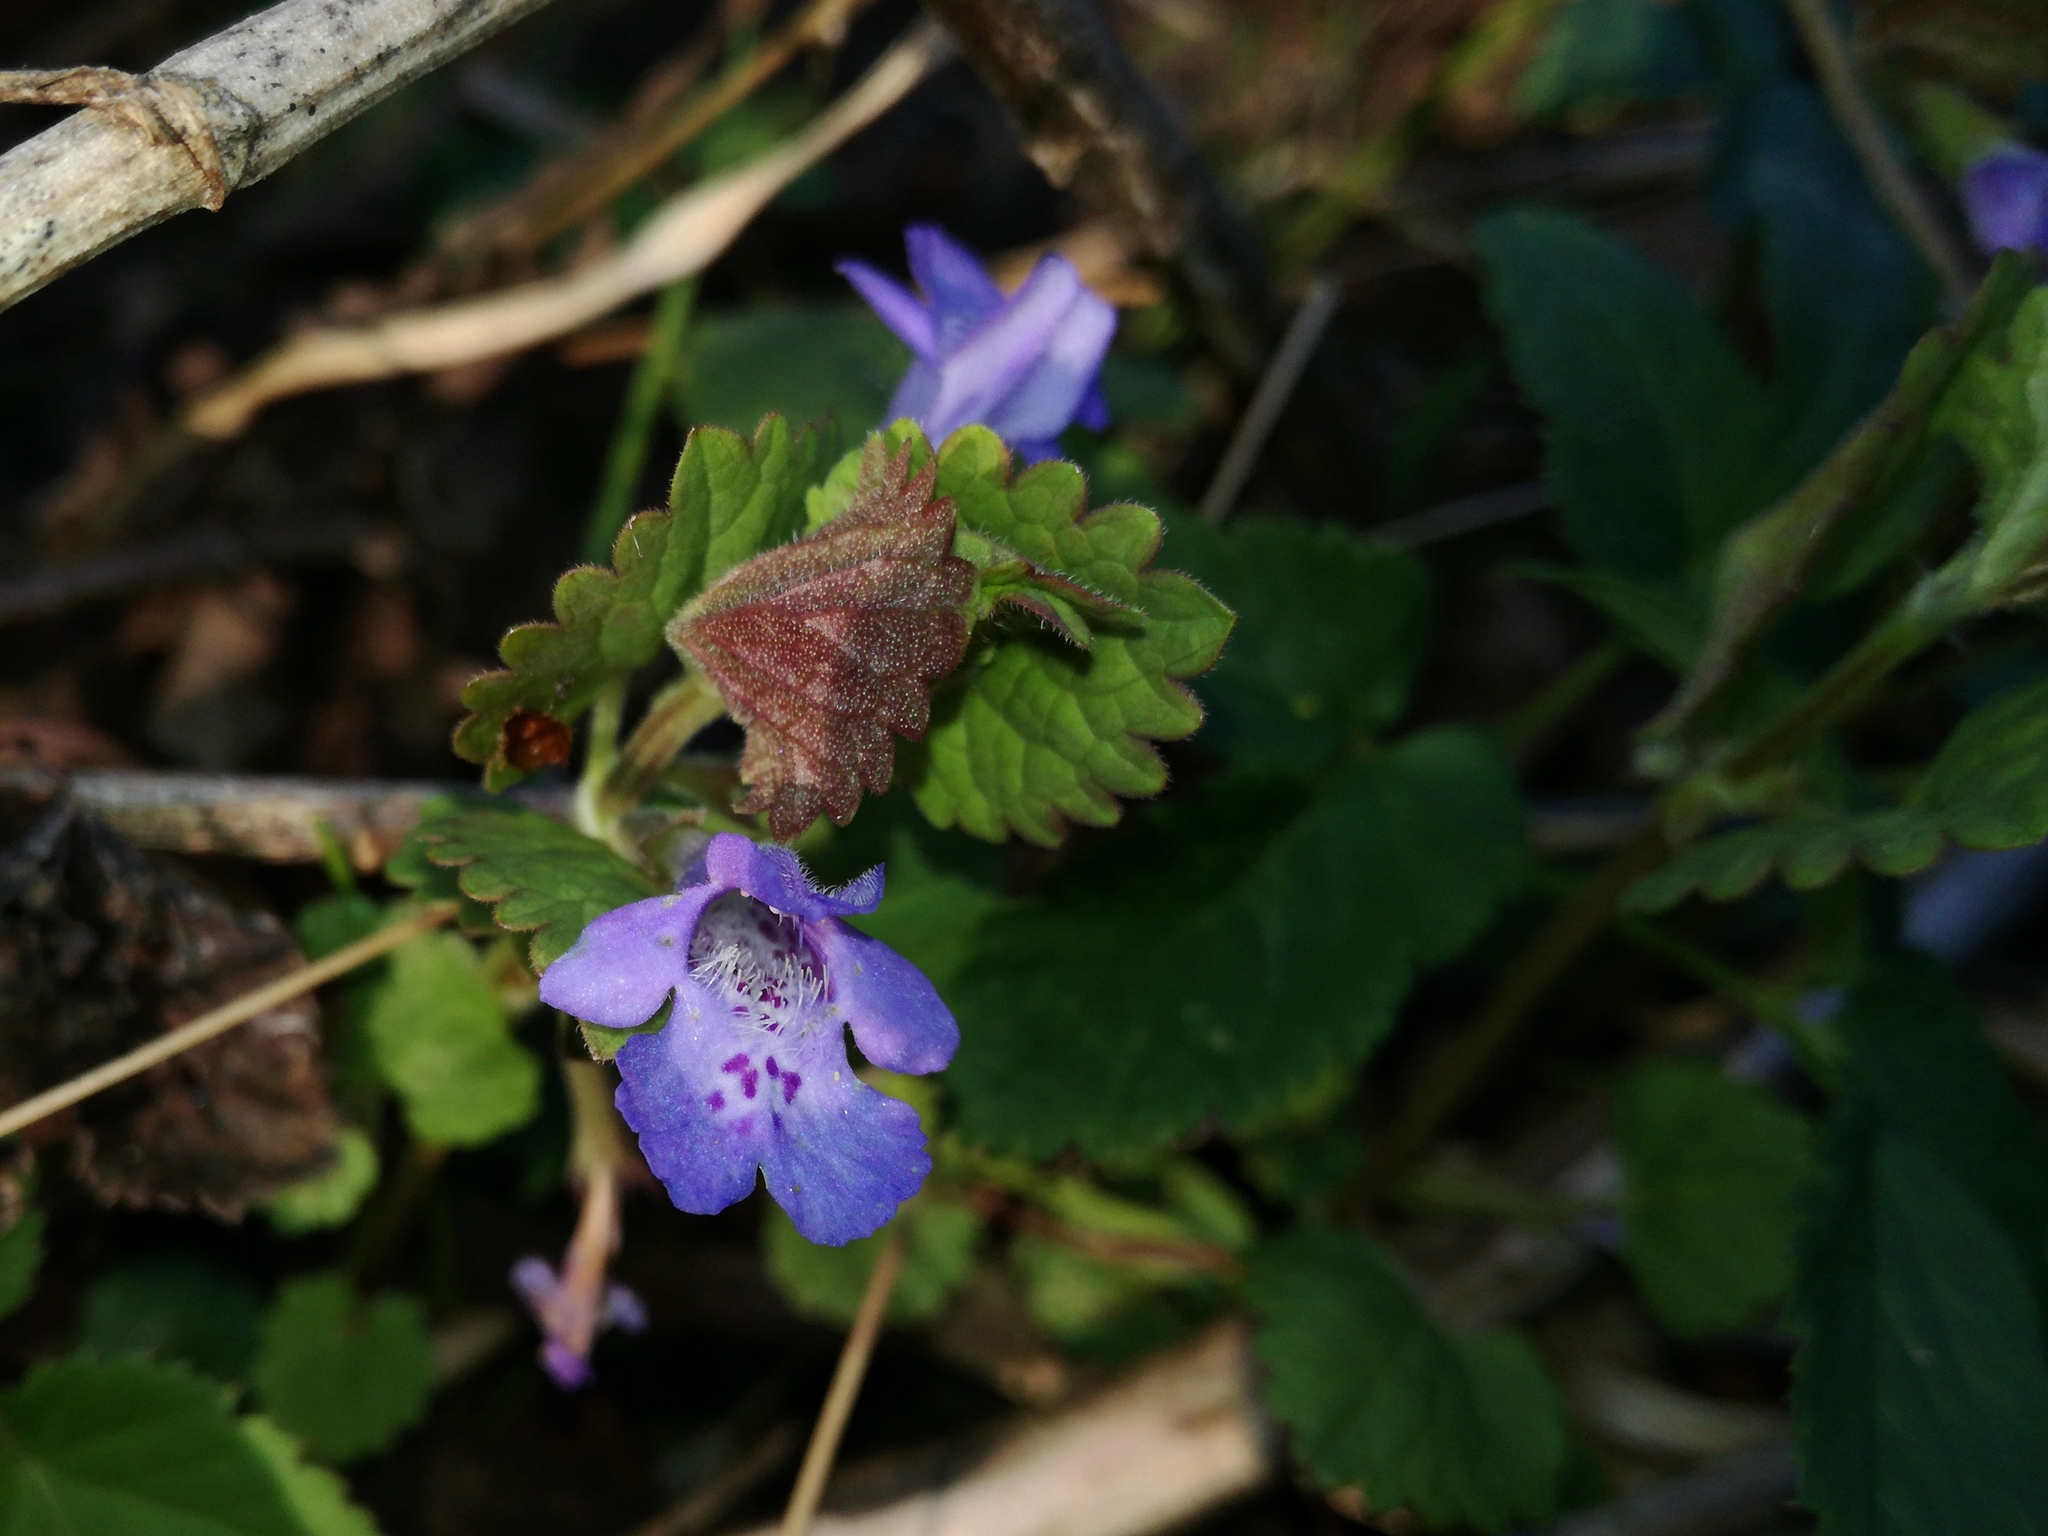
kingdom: Plantae
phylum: Tracheophyta
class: Magnoliopsida
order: Lamiales
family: Lamiaceae
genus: Glechoma
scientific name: Glechoma hederacea
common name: Ground ivy
